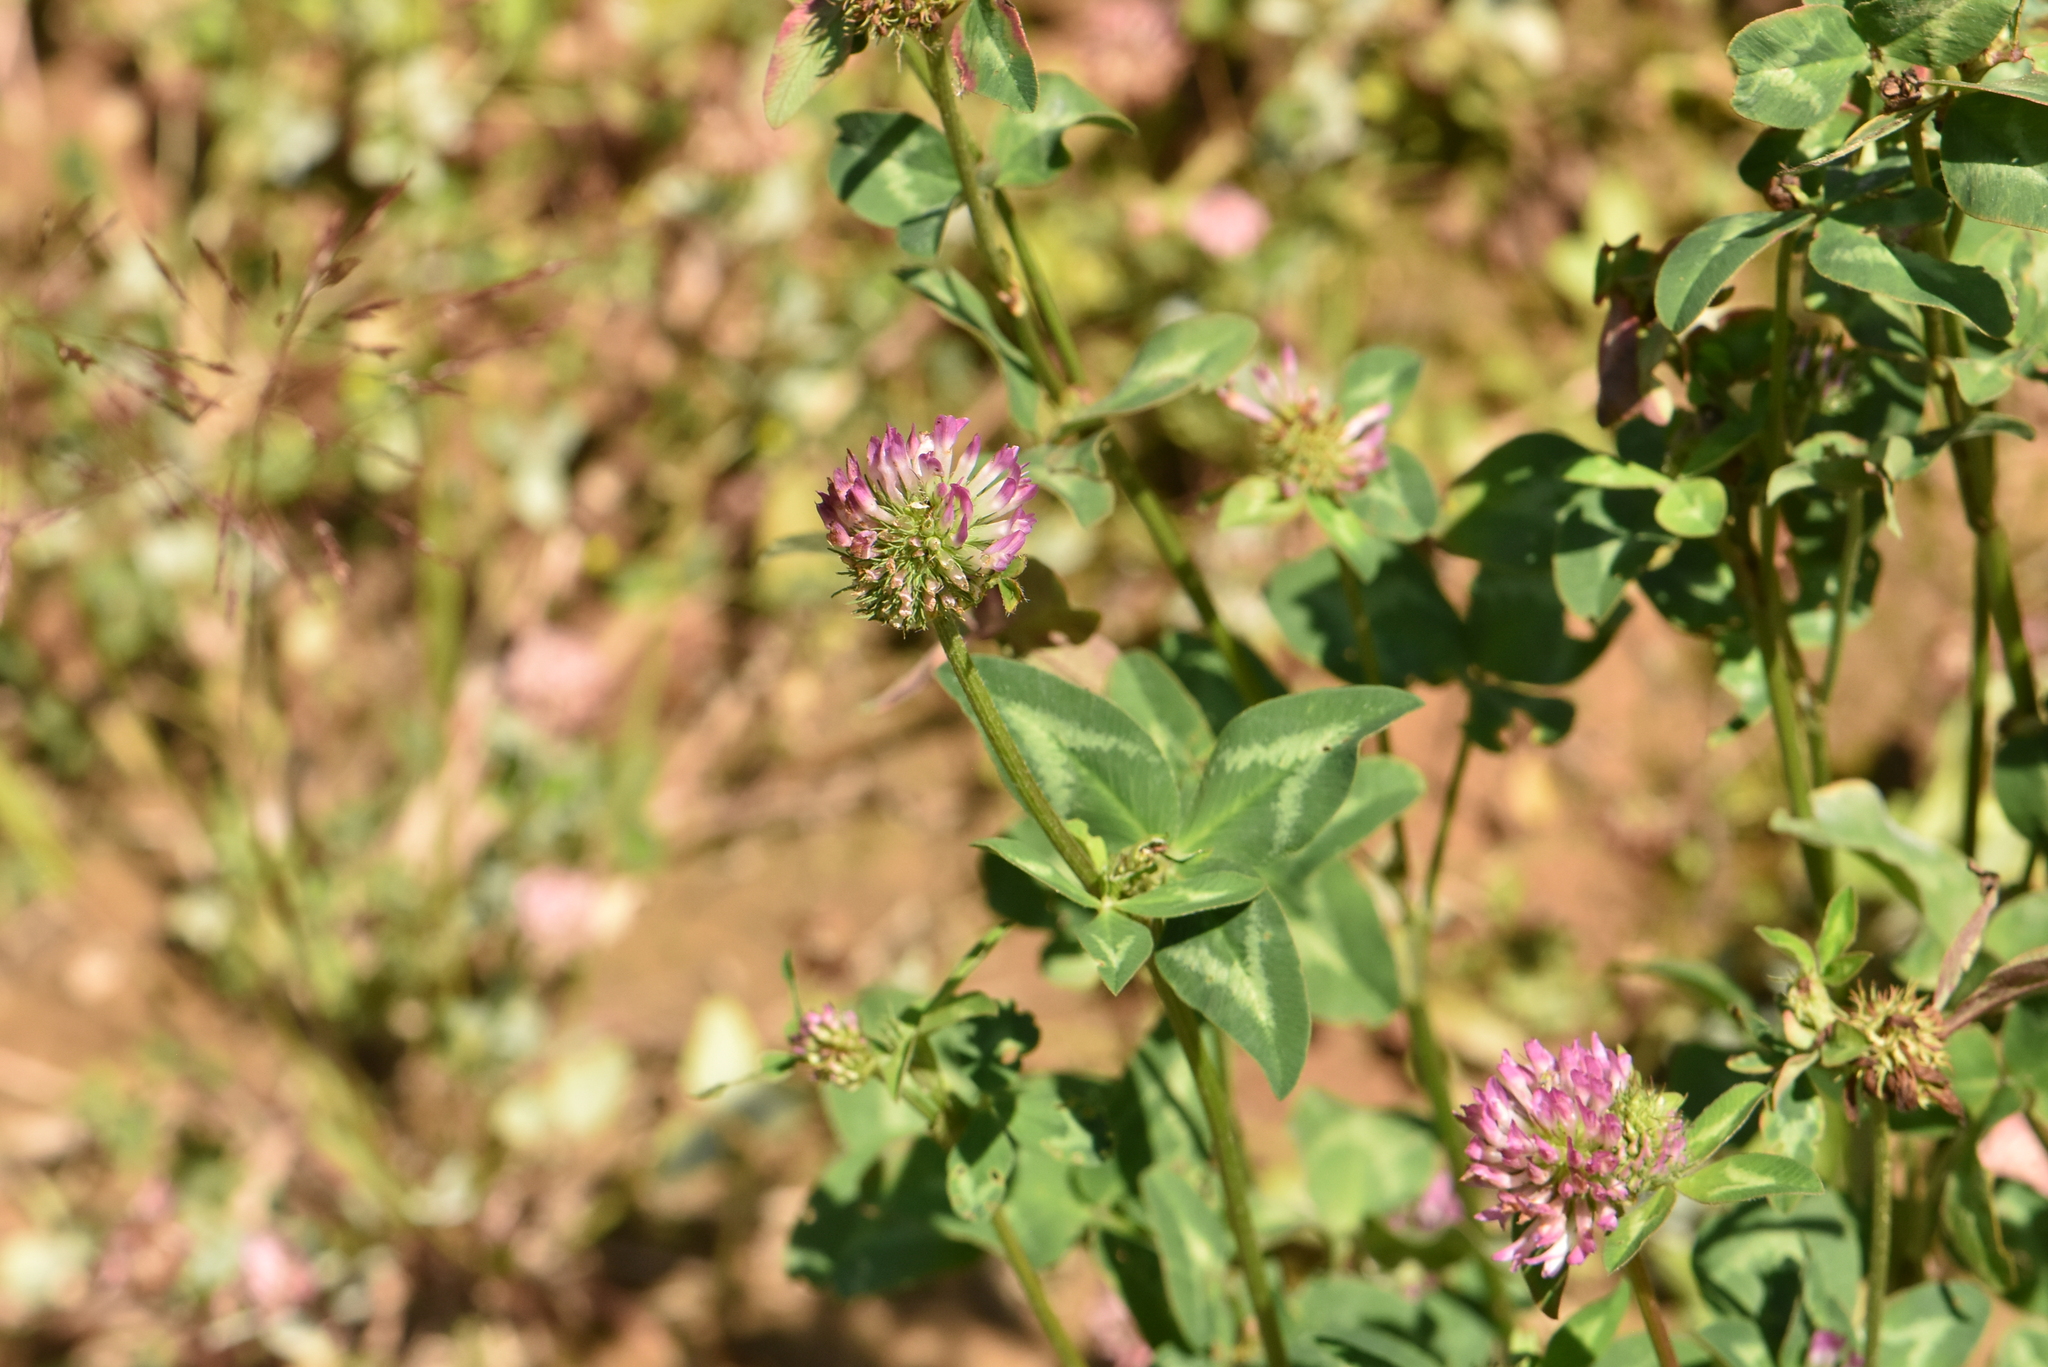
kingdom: Plantae
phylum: Tracheophyta
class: Magnoliopsida
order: Fabales
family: Fabaceae
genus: Trifolium
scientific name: Trifolium pratense
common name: Red clover
